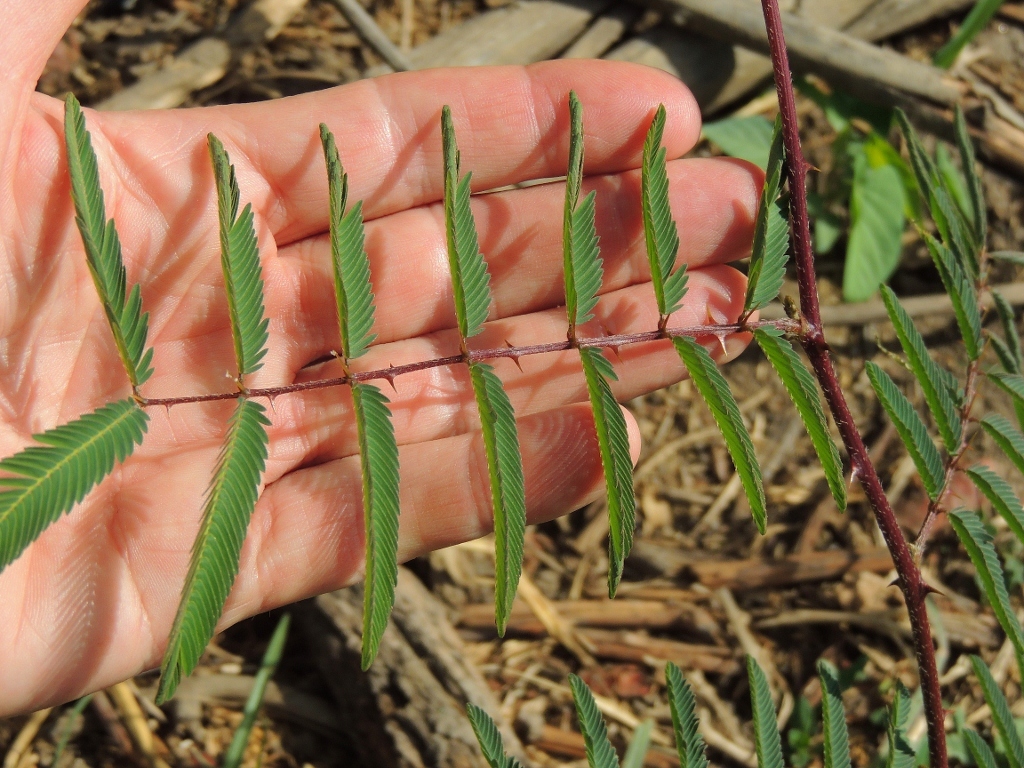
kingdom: Plantae
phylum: Tracheophyta
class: Magnoliopsida
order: Fabales
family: Fabaceae
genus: Mimosa
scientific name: Mimosa pigra
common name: Black mimosa
